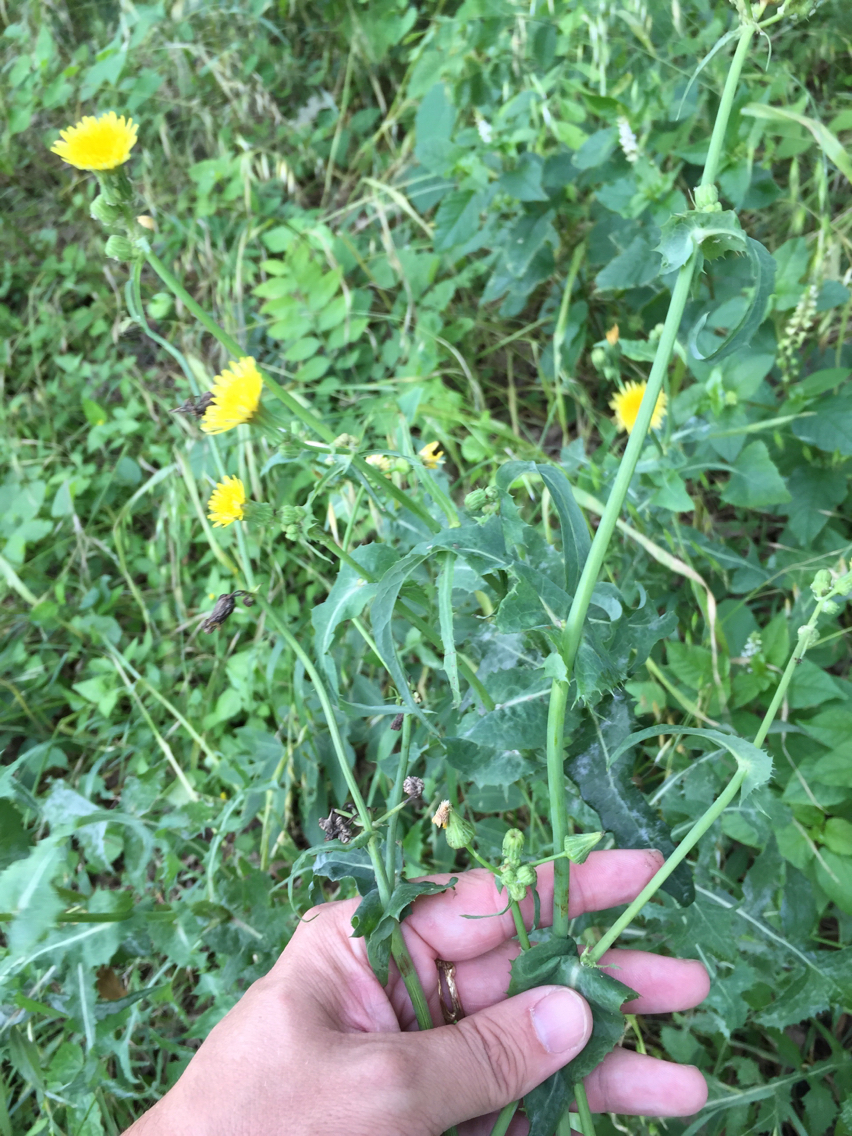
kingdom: Plantae
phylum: Tracheophyta
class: Magnoliopsida
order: Asterales
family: Asteraceae
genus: Sonchus
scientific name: Sonchus oleraceus
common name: Common sowthistle
